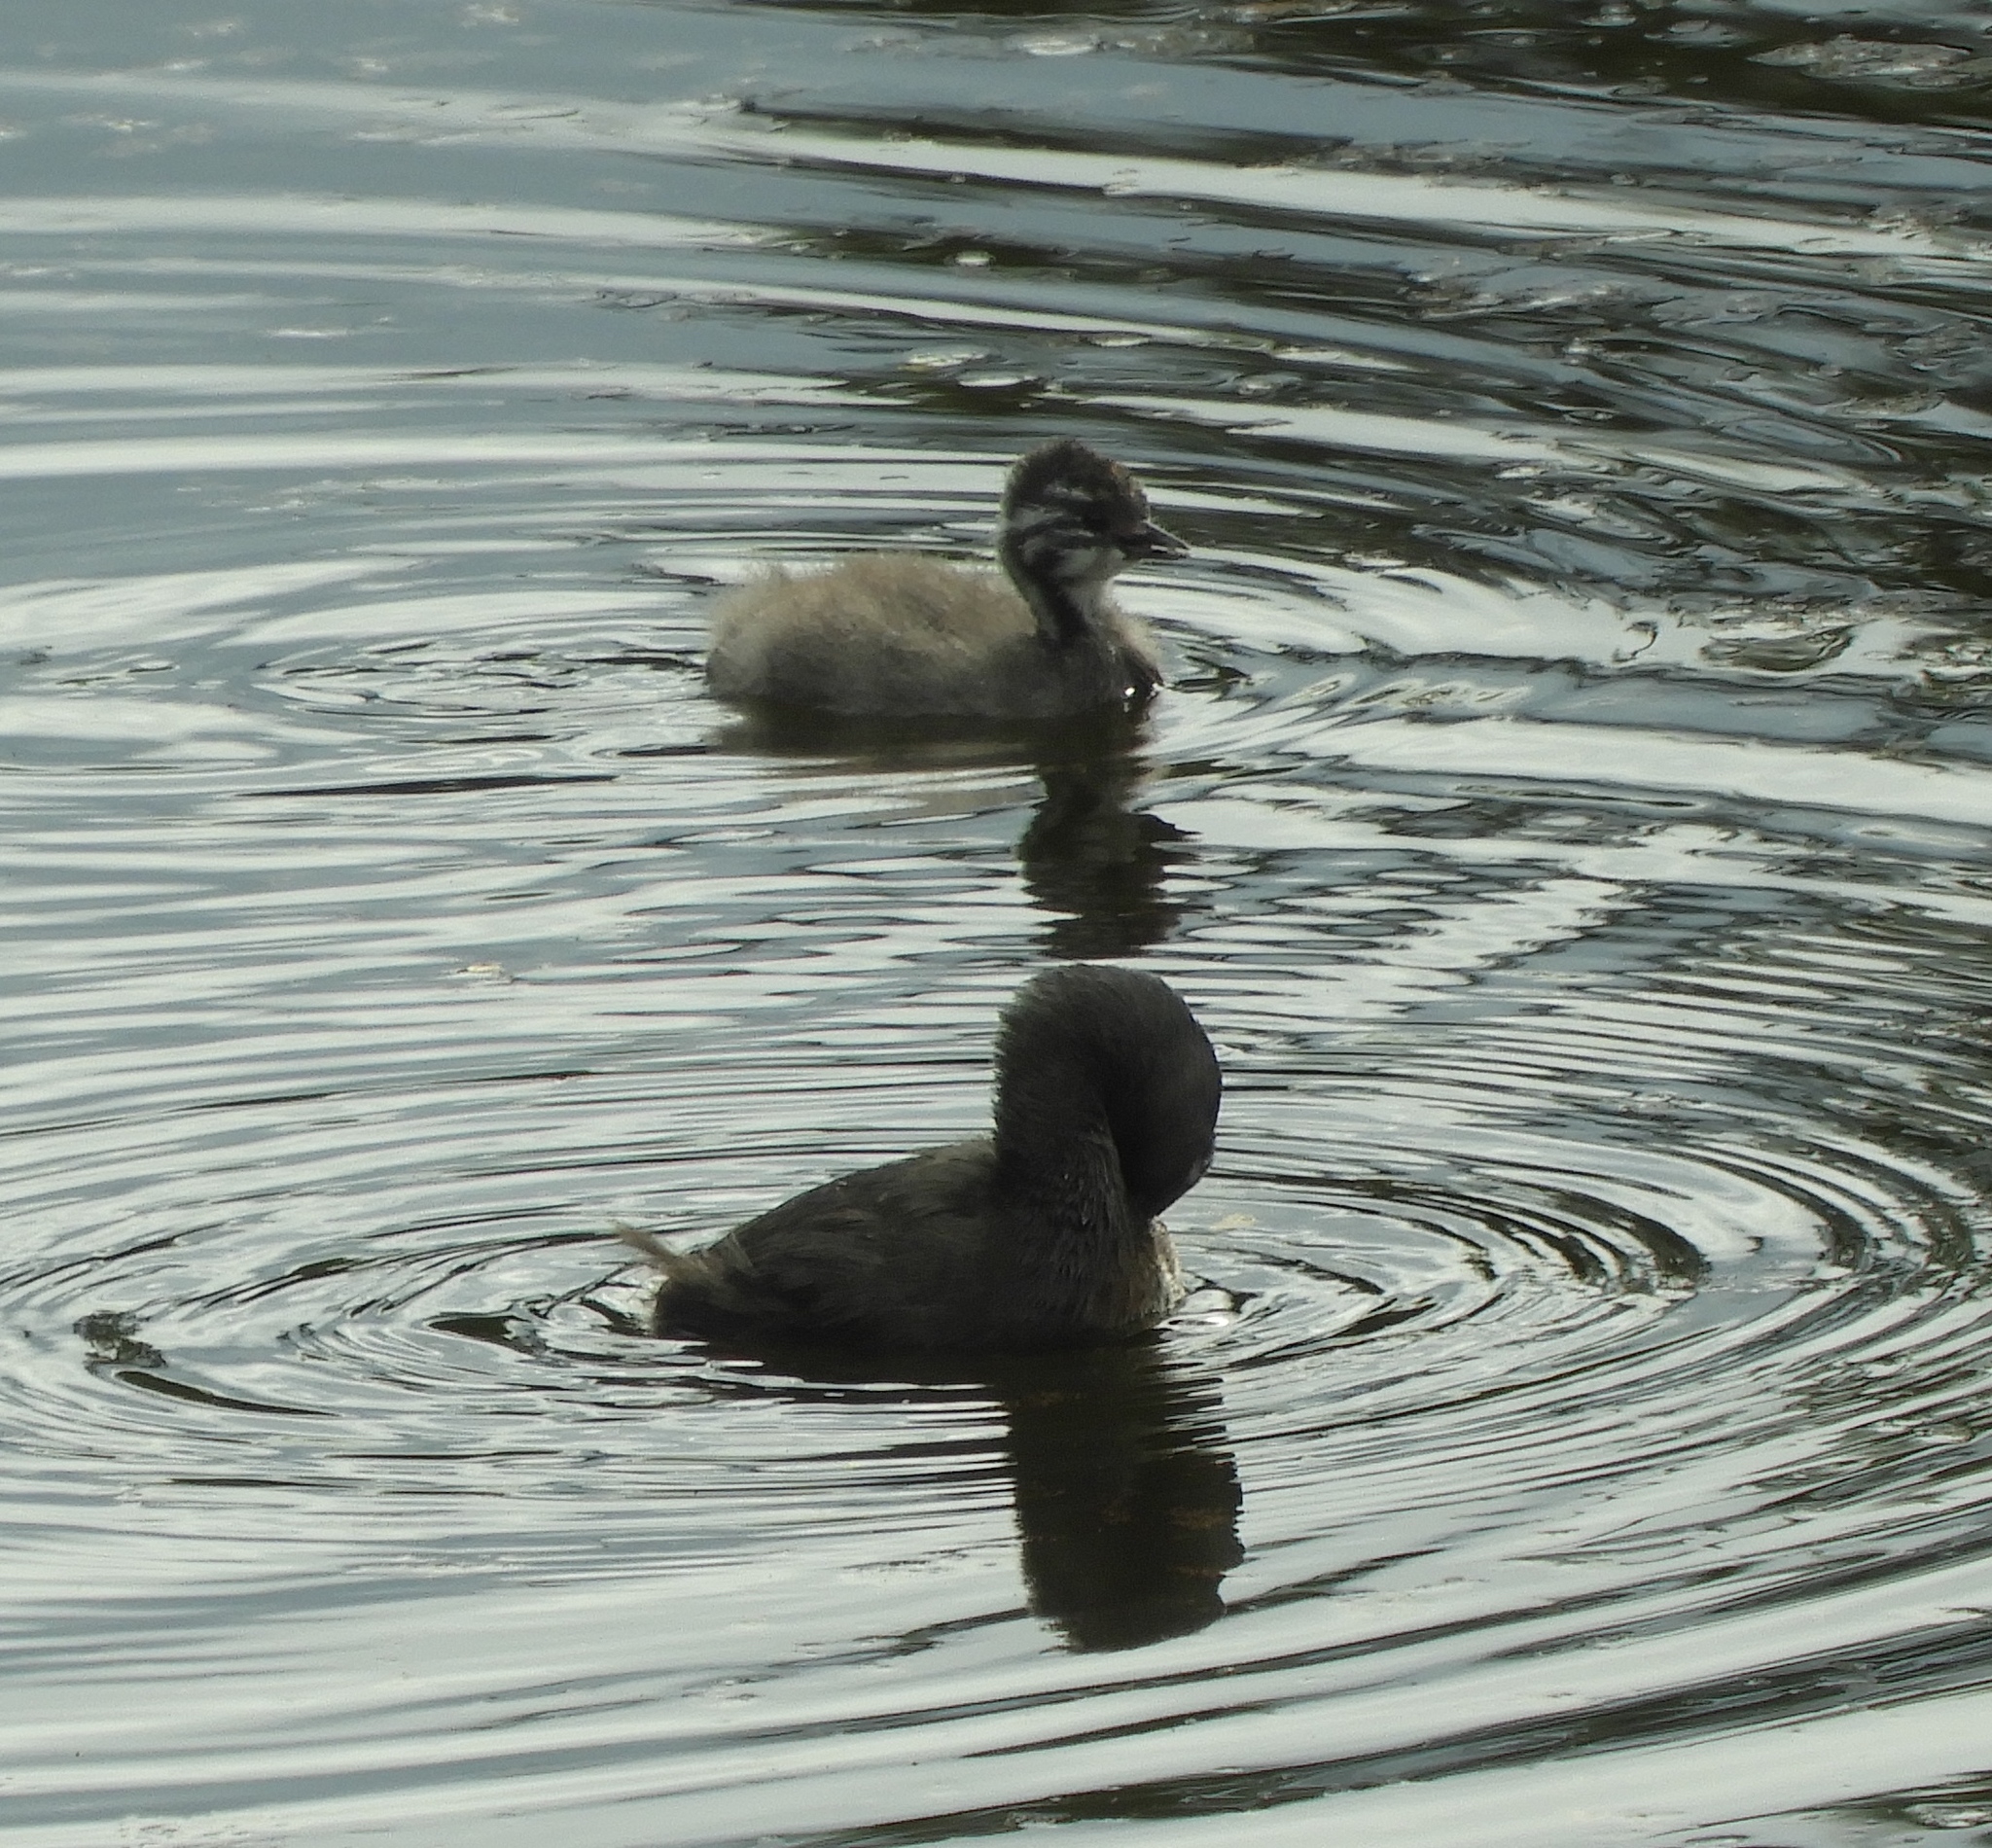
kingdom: Animalia
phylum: Chordata
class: Aves
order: Podicipediformes
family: Podicipedidae
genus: Tachybaptus
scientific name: Tachybaptus dominicus
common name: Least grebe
